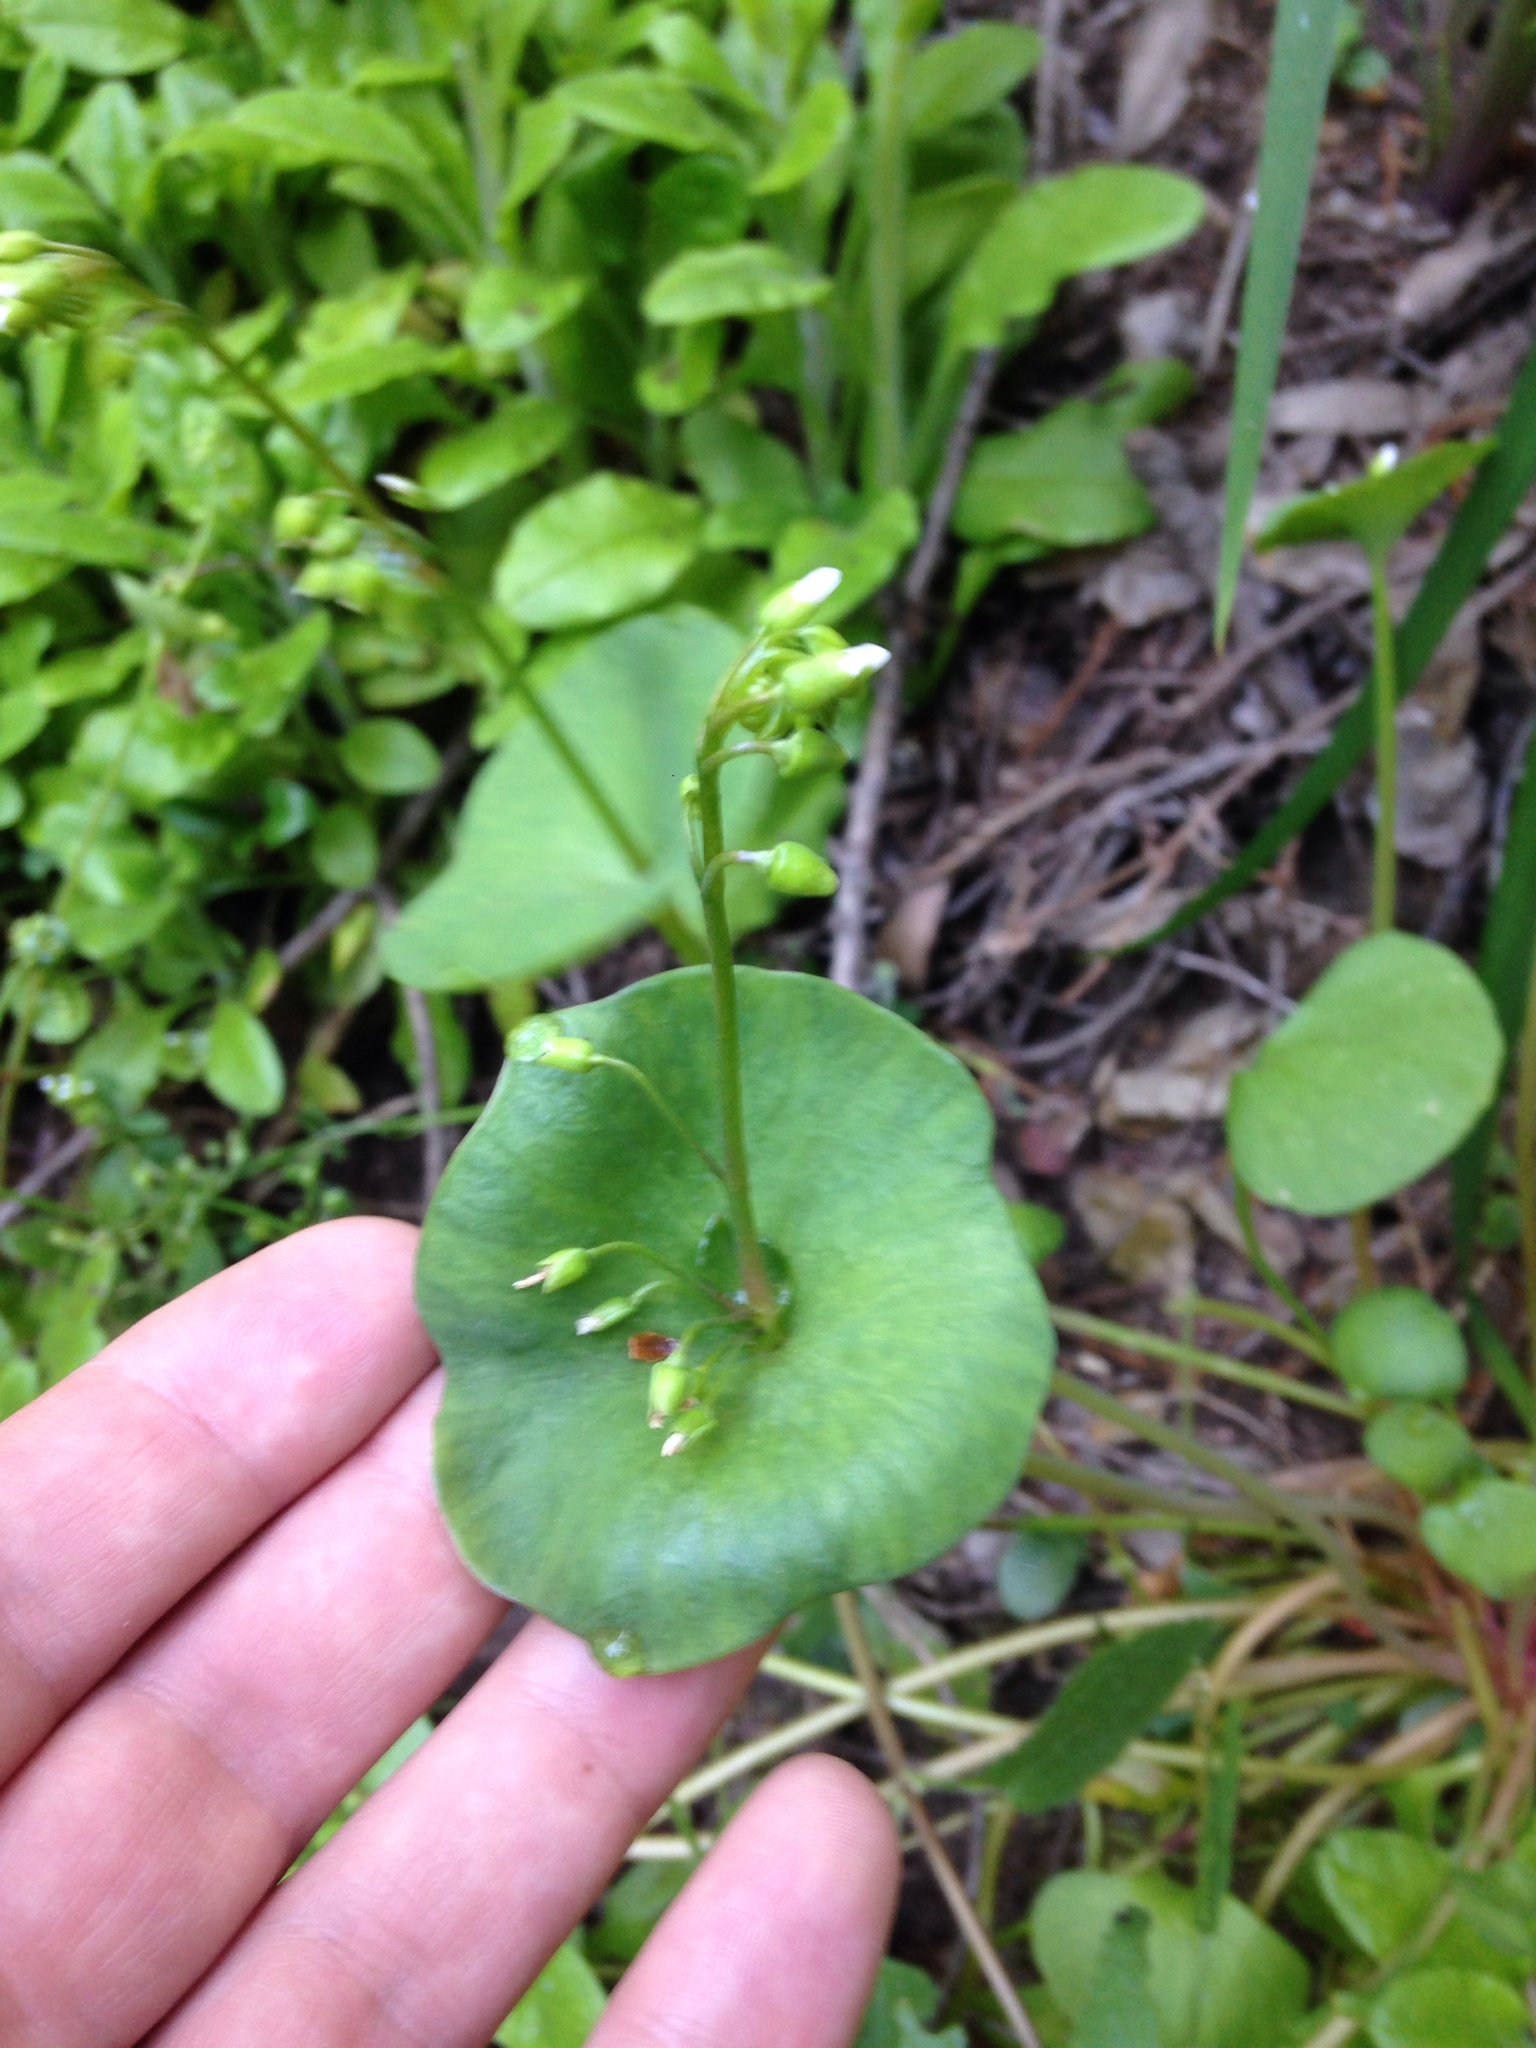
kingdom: Plantae
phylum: Tracheophyta
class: Magnoliopsida
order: Caryophyllales
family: Montiaceae
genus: Claytonia
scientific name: Claytonia perfoliata
